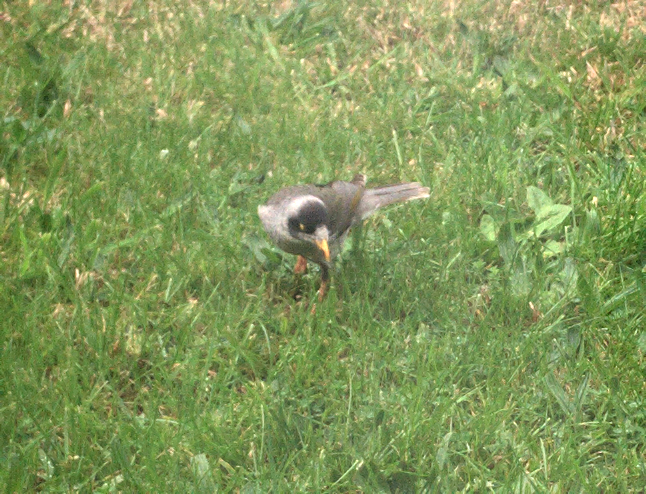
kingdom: Animalia
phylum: Chordata
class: Aves
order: Passeriformes
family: Meliphagidae
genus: Manorina
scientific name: Manorina melanocephala
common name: Noisy miner
